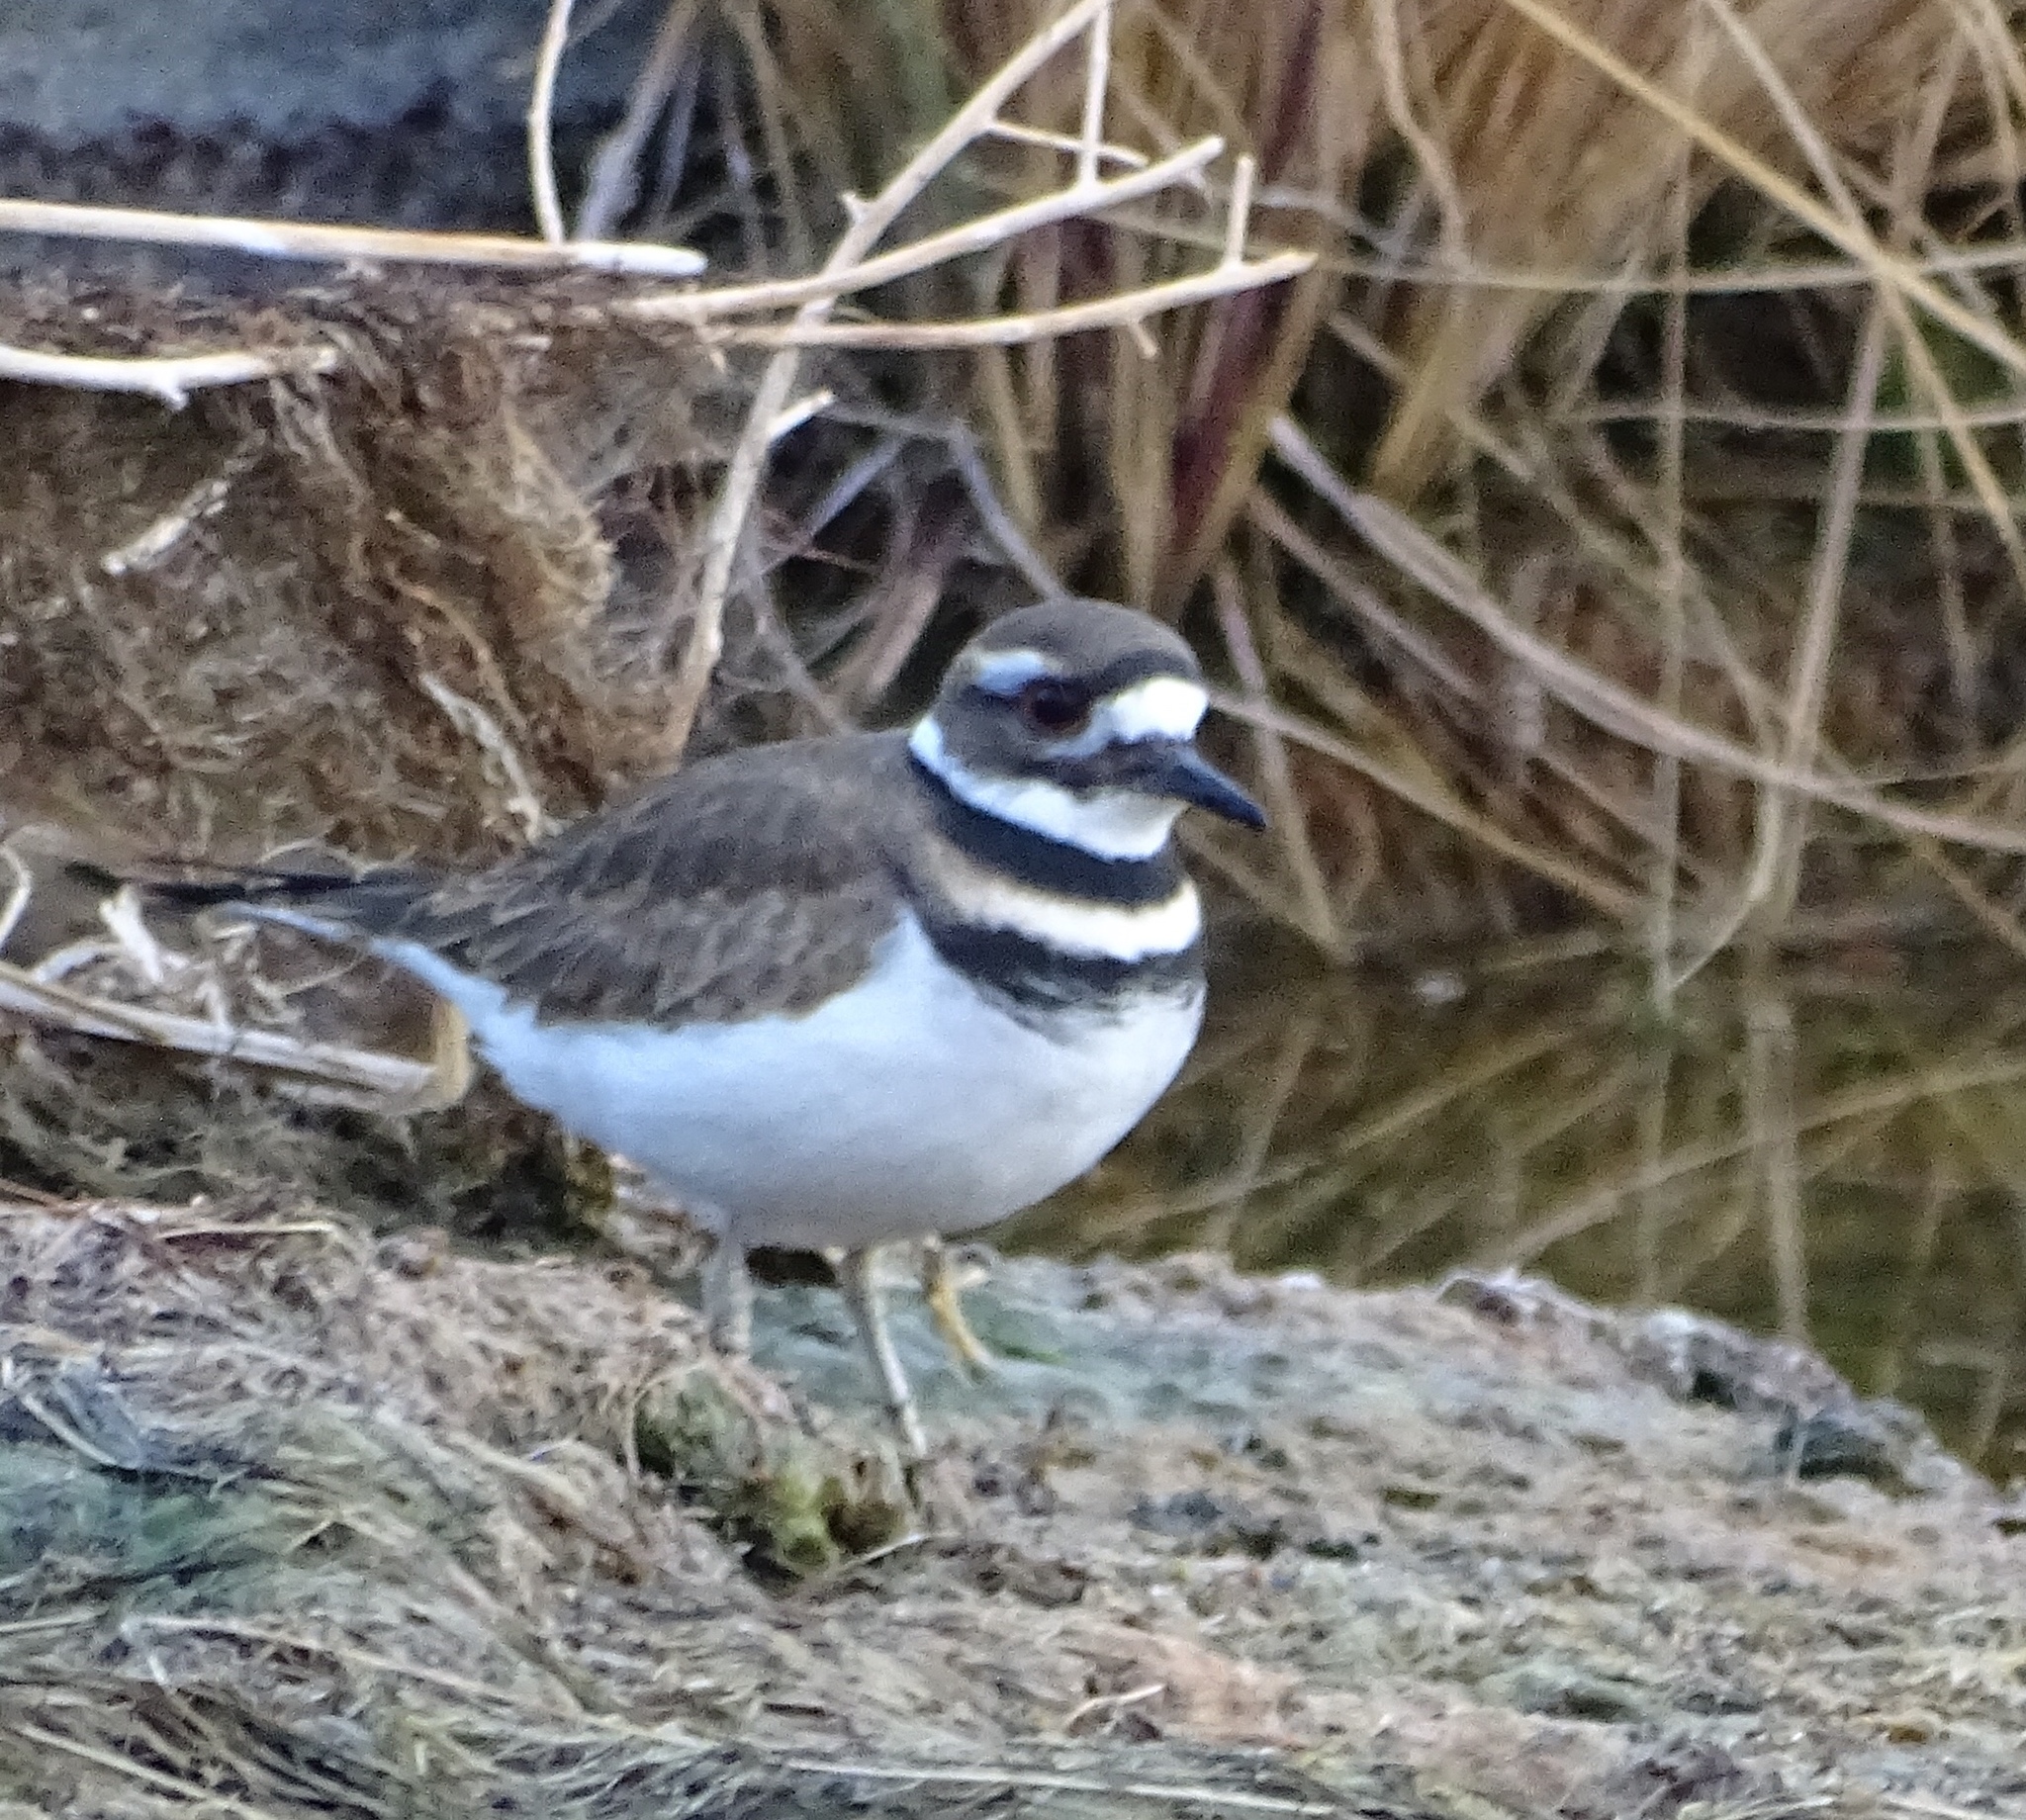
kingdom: Animalia
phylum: Chordata
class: Aves
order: Charadriiformes
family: Charadriidae
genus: Charadrius
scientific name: Charadrius vociferus
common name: Killdeer
